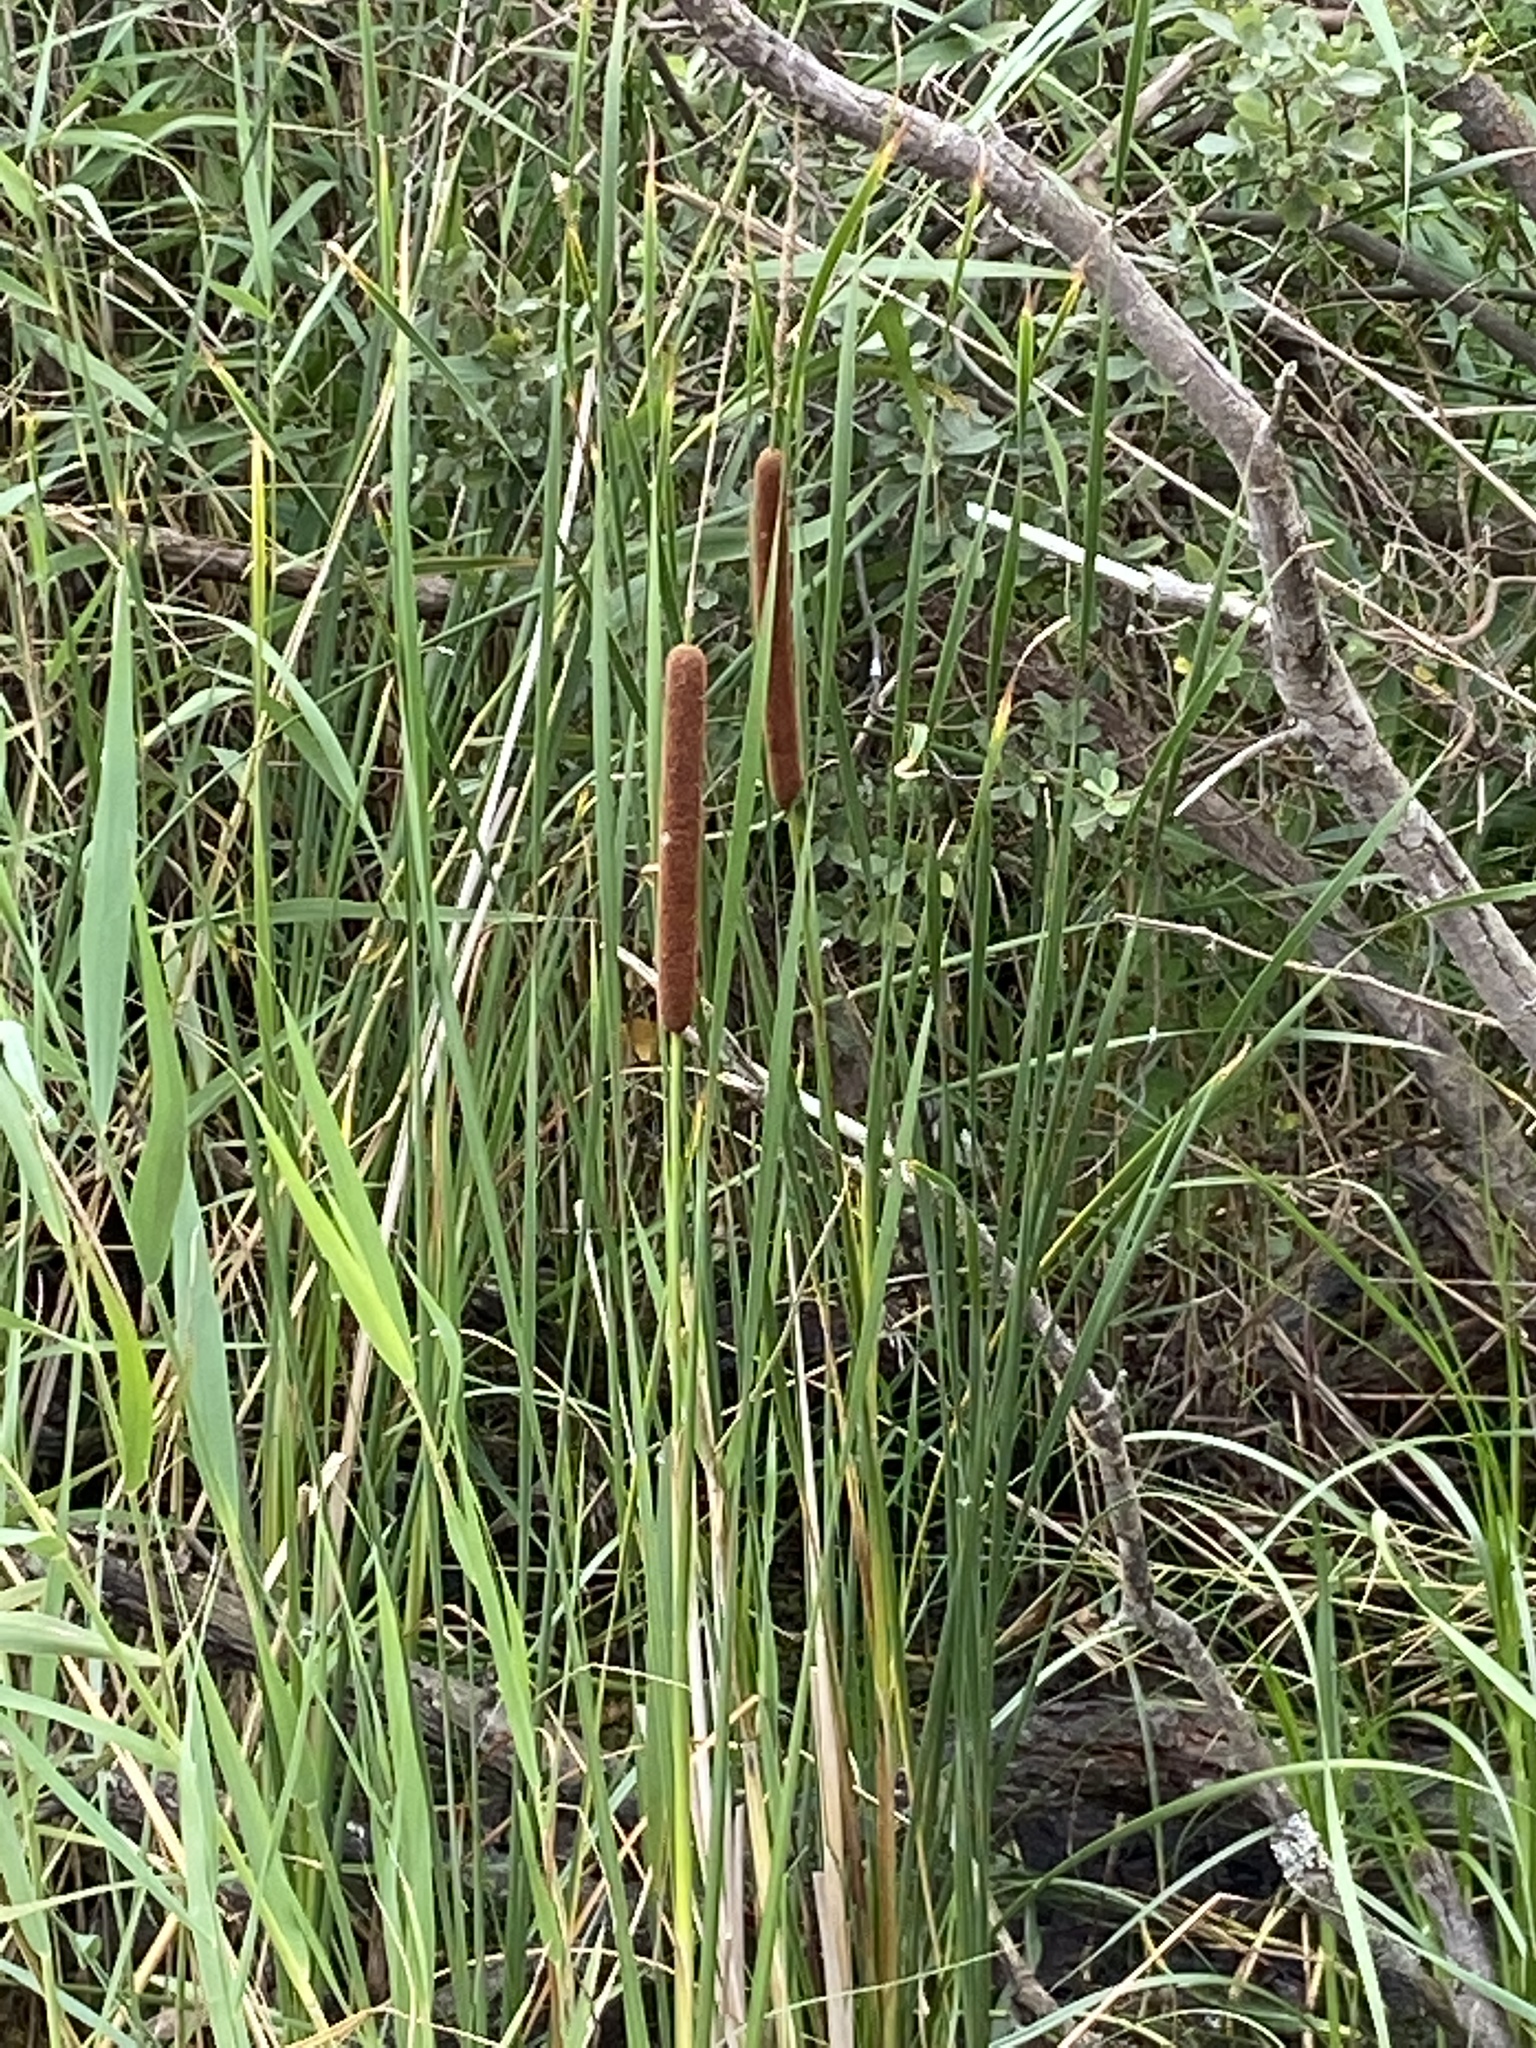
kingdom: Plantae
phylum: Tracheophyta
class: Liliopsida
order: Poales
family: Typhaceae
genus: Typha
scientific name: Typha angustifolia
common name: Lesser bulrush
